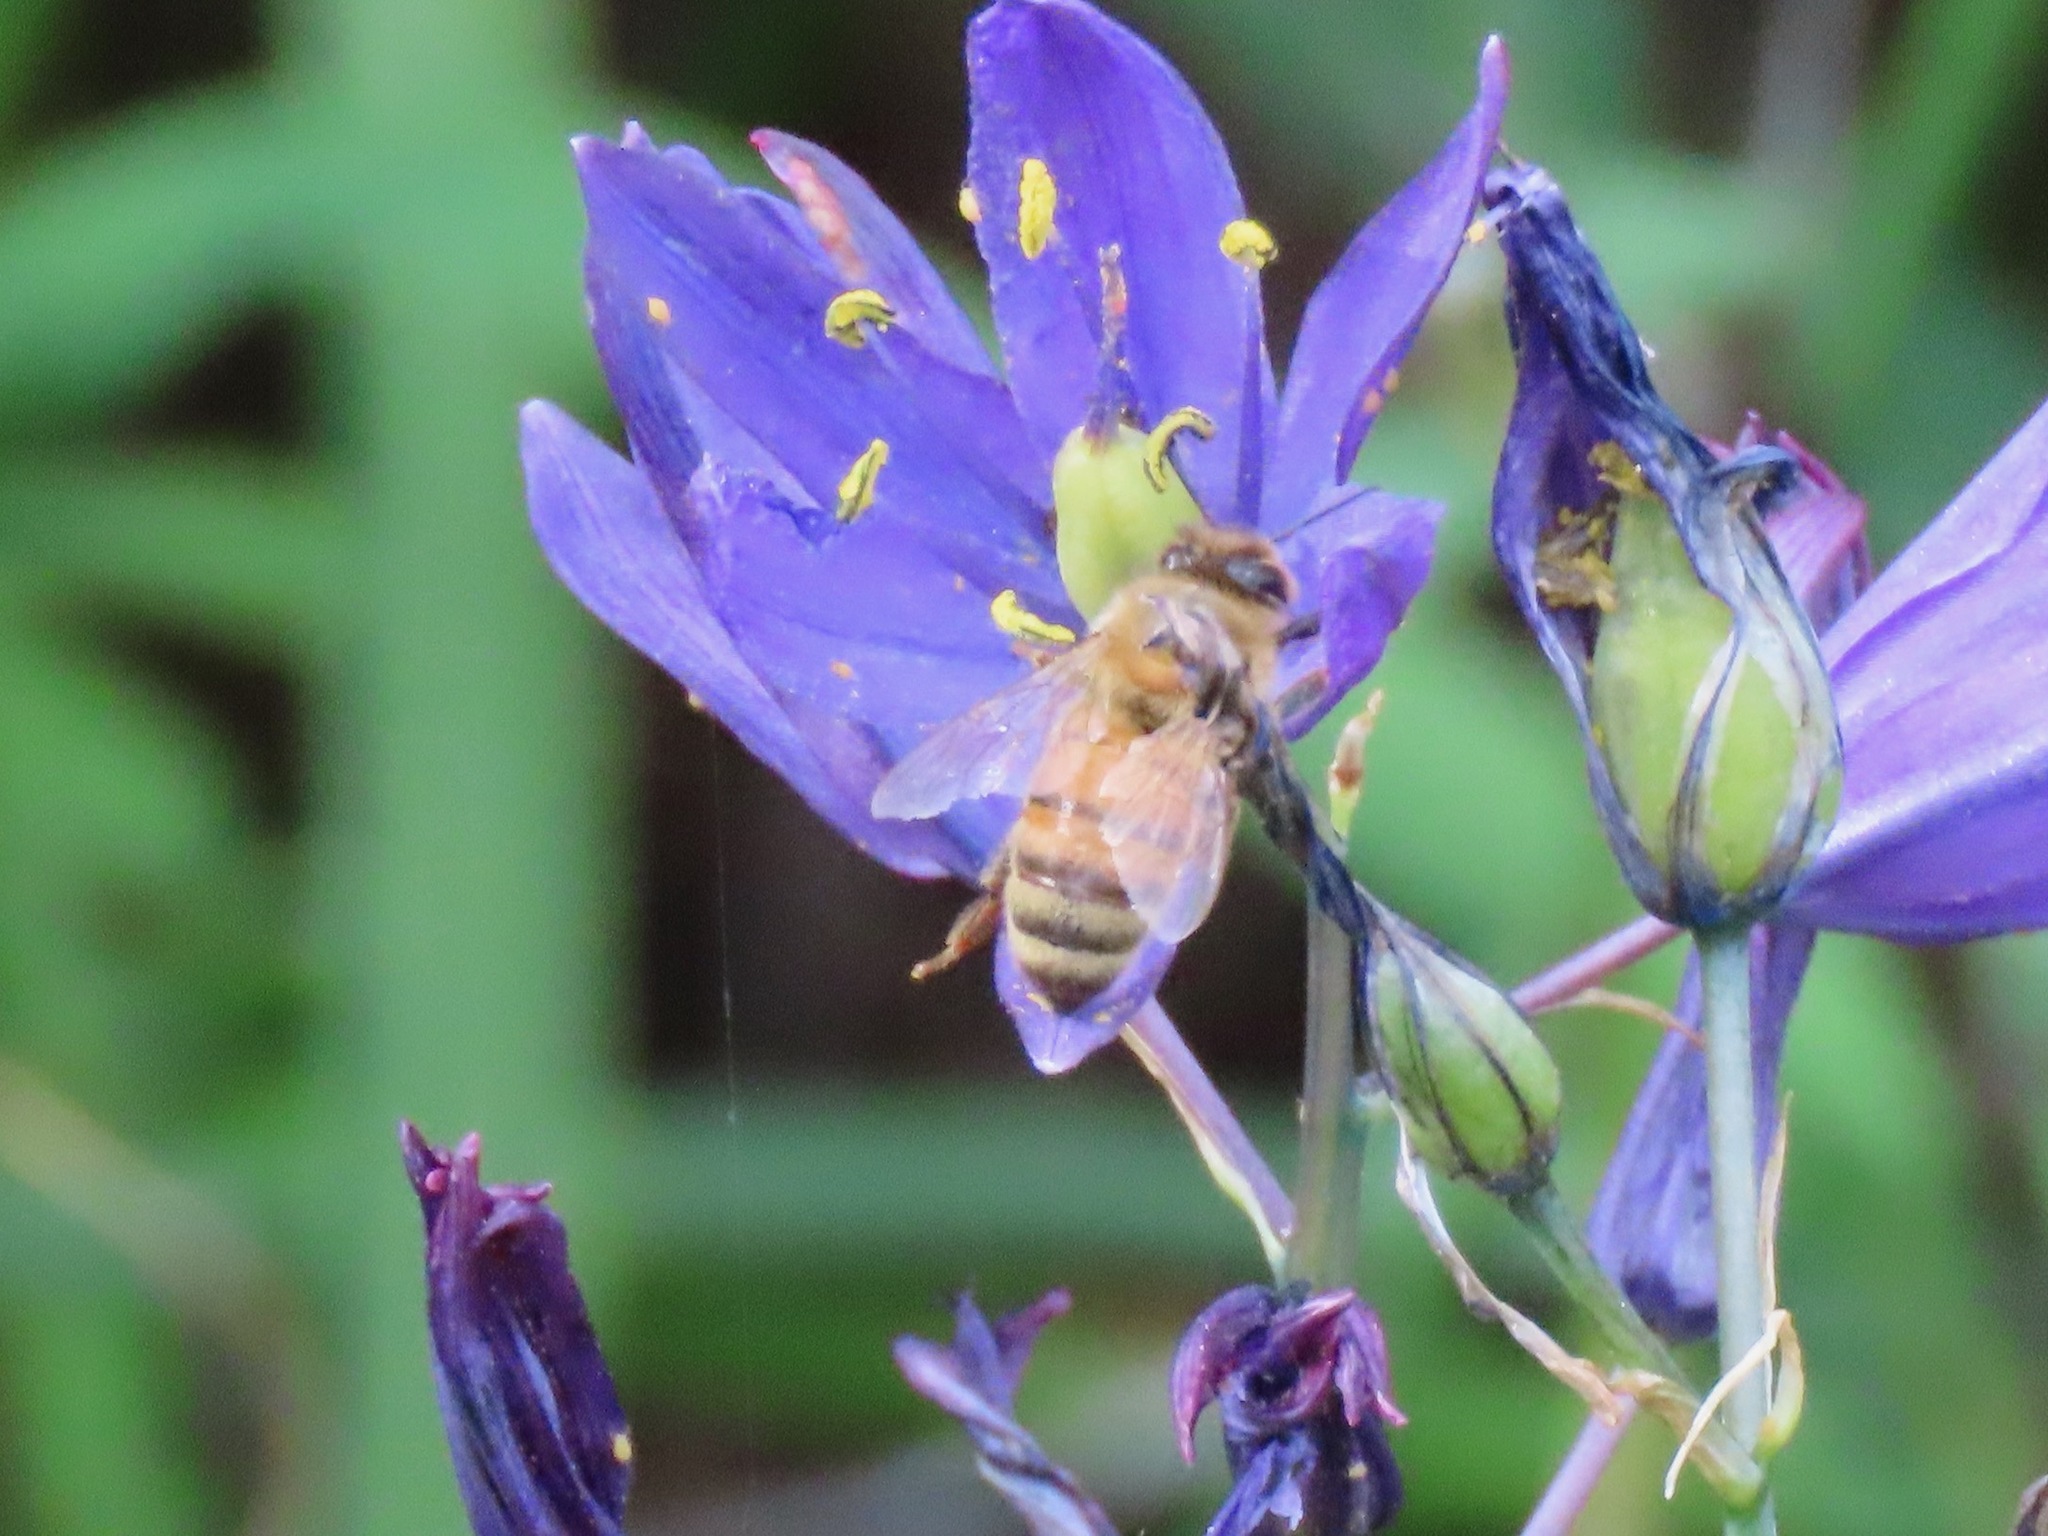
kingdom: Animalia
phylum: Arthropoda
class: Insecta
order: Hymenoptera
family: Apidae
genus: Apis
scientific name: Apis mellifera
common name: Honey bee
